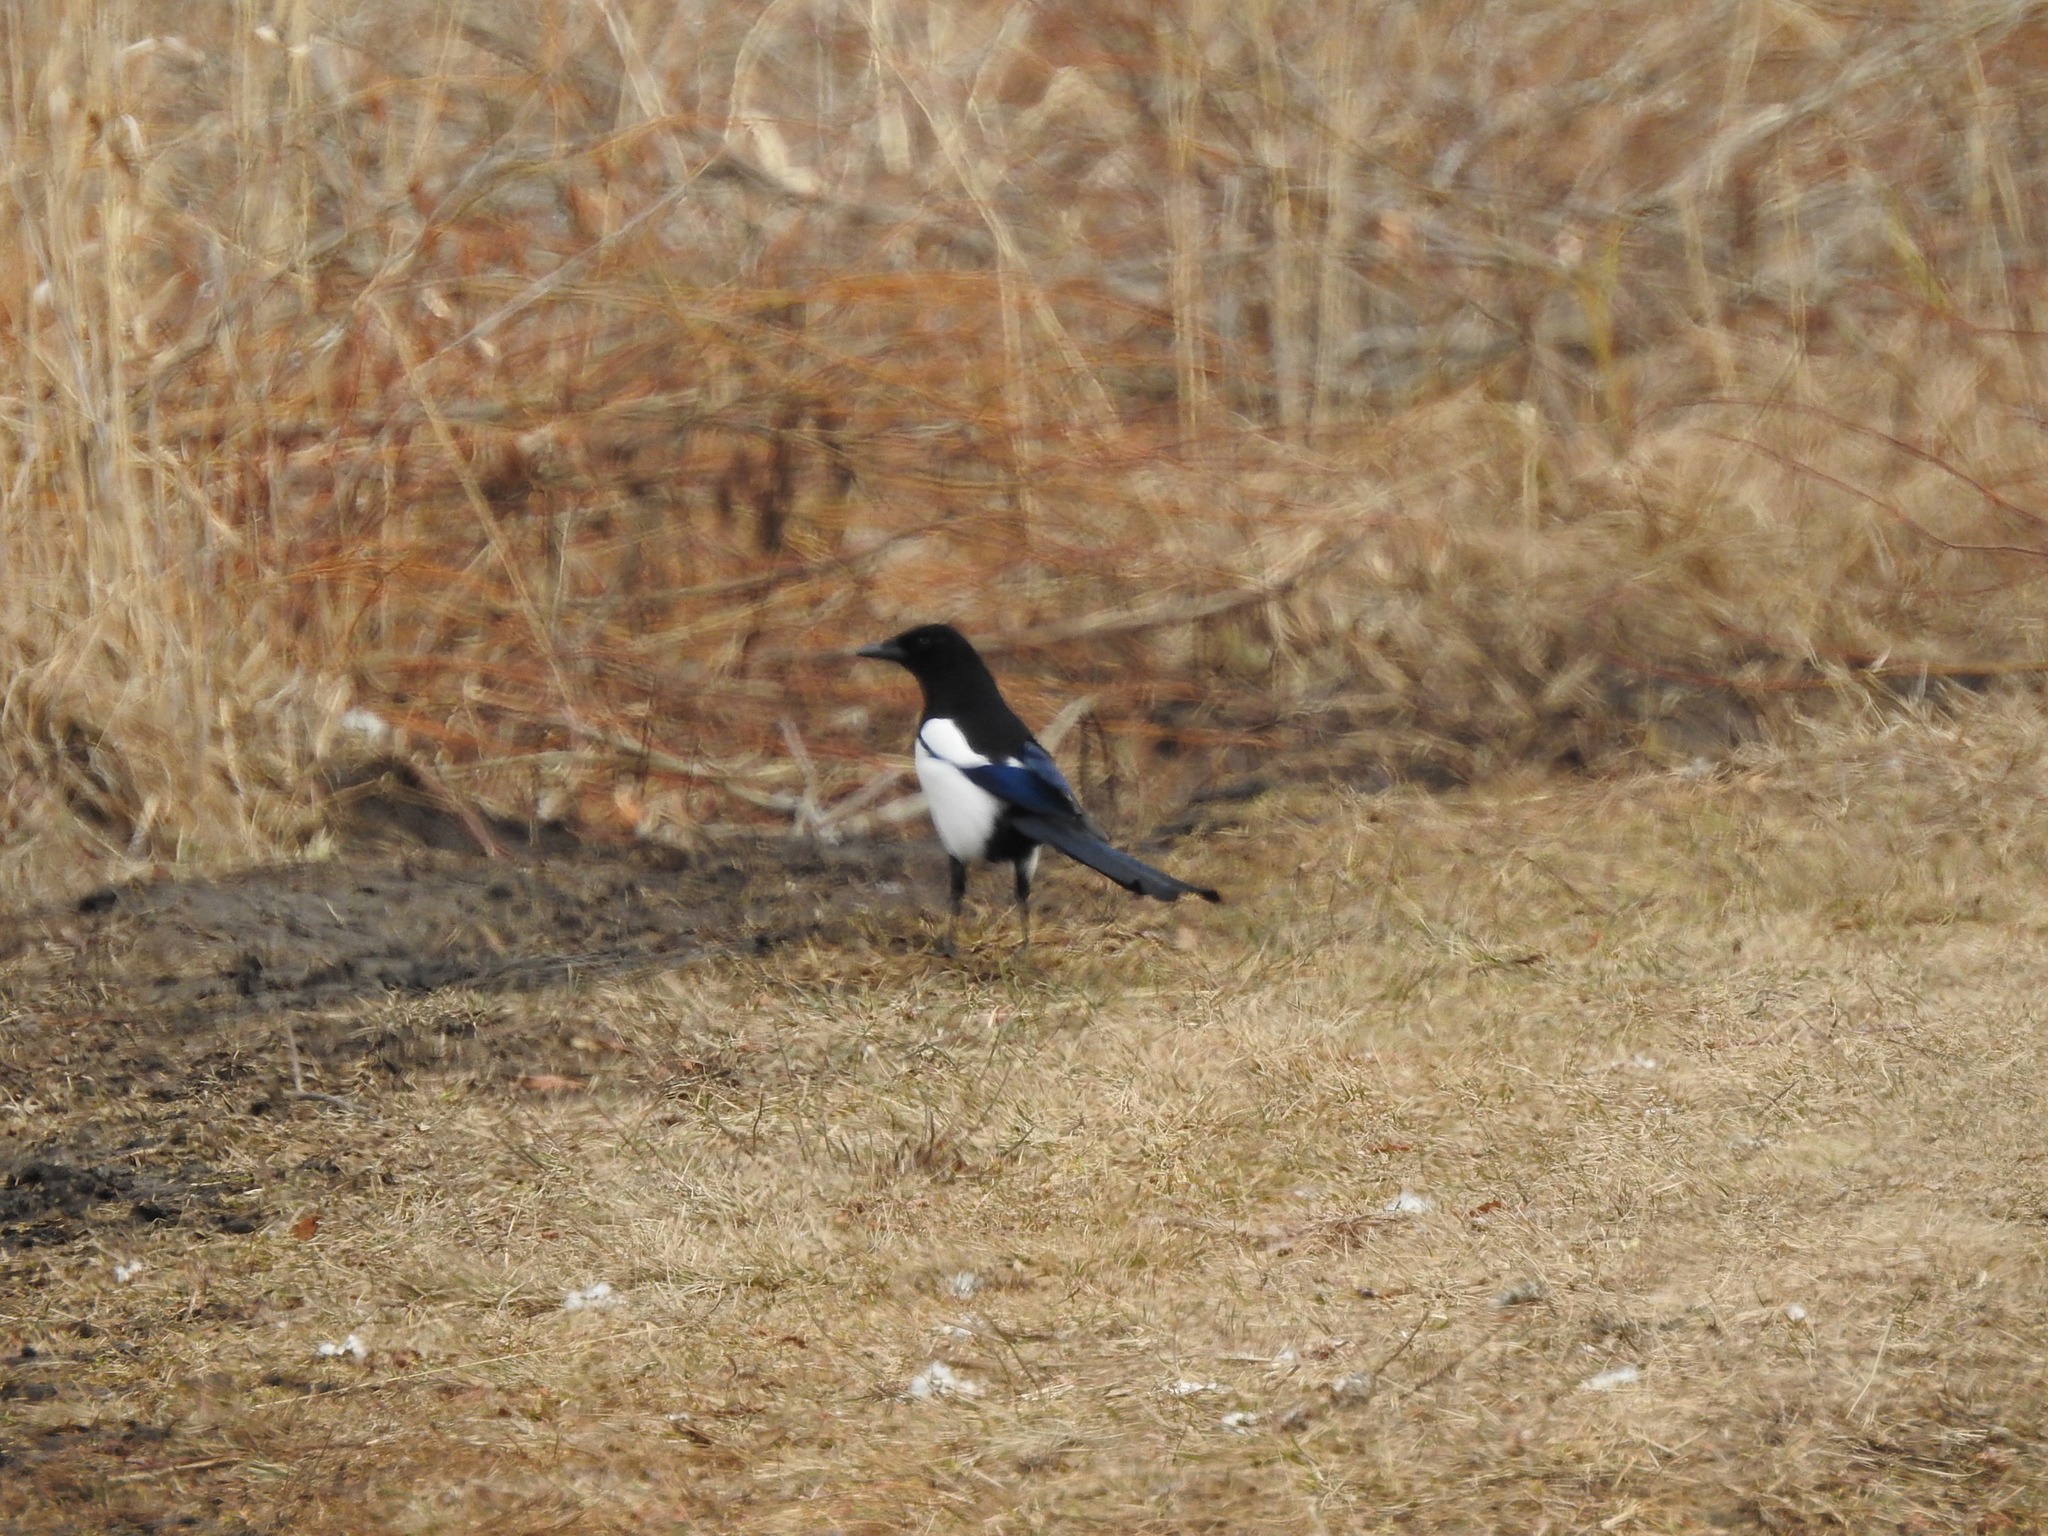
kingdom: Animalia
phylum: Chordata
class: Aves
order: Passeriformes
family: Corvidae
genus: Pica
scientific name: Pica pica
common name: Eurasian magpie
